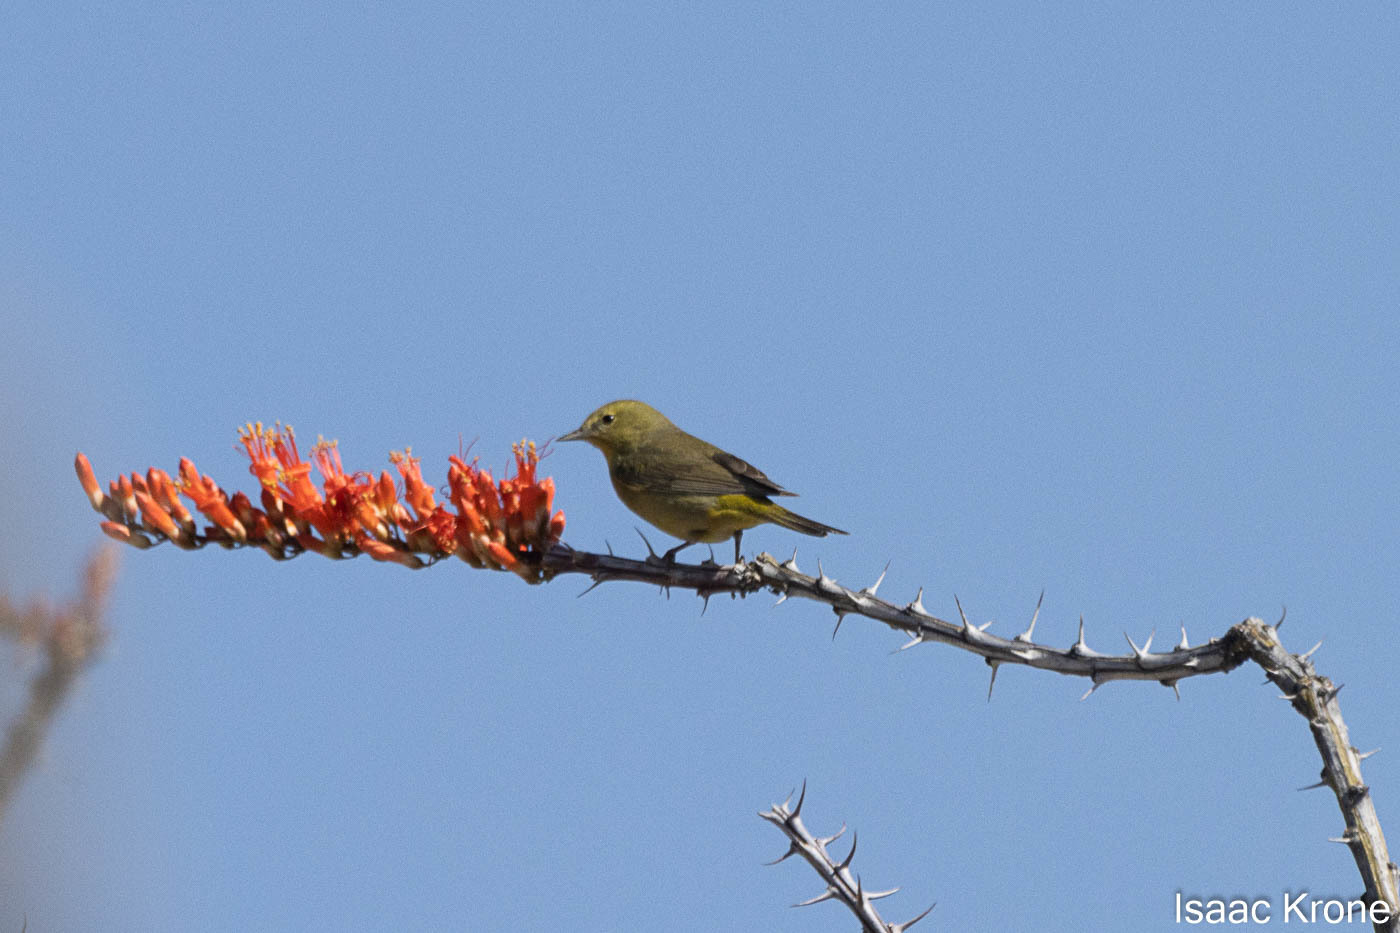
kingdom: Animalia
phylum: Chordata
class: Aves
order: Passeriformes
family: Parulidae
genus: Leiothlypis
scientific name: Leiothlypis celata
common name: Orange-crowned warbler
